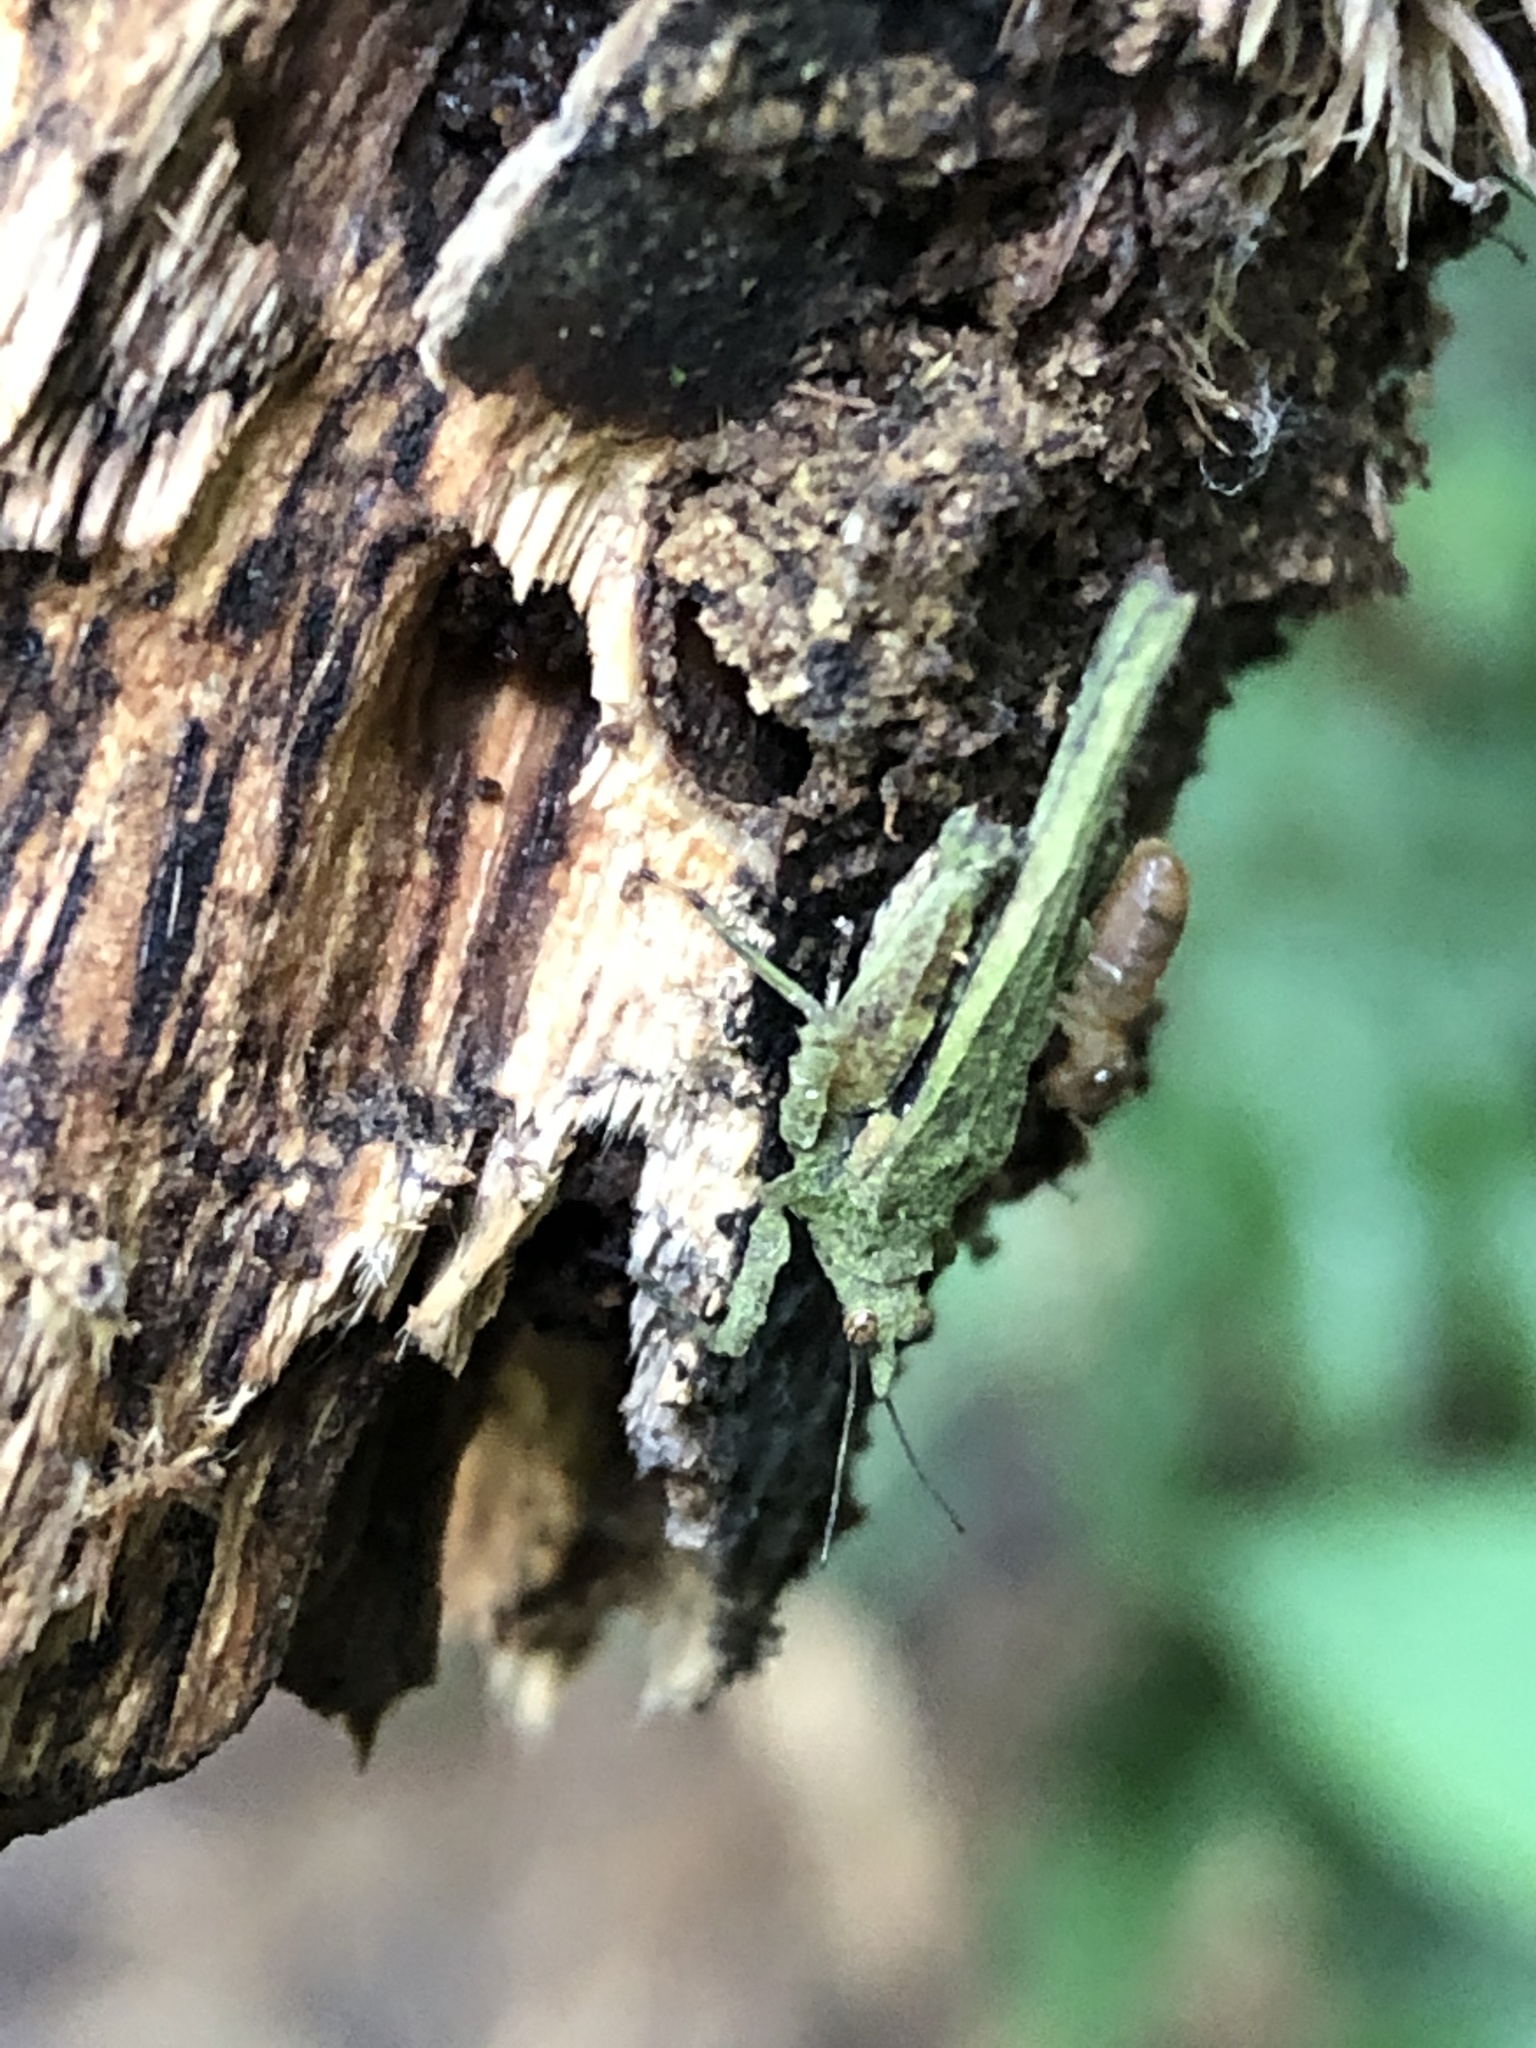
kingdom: Animalia
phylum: Arthropoda
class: Insecta
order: Orthoptera
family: Tetrigidae
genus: Miriatra
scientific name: Miriatra boliviana
